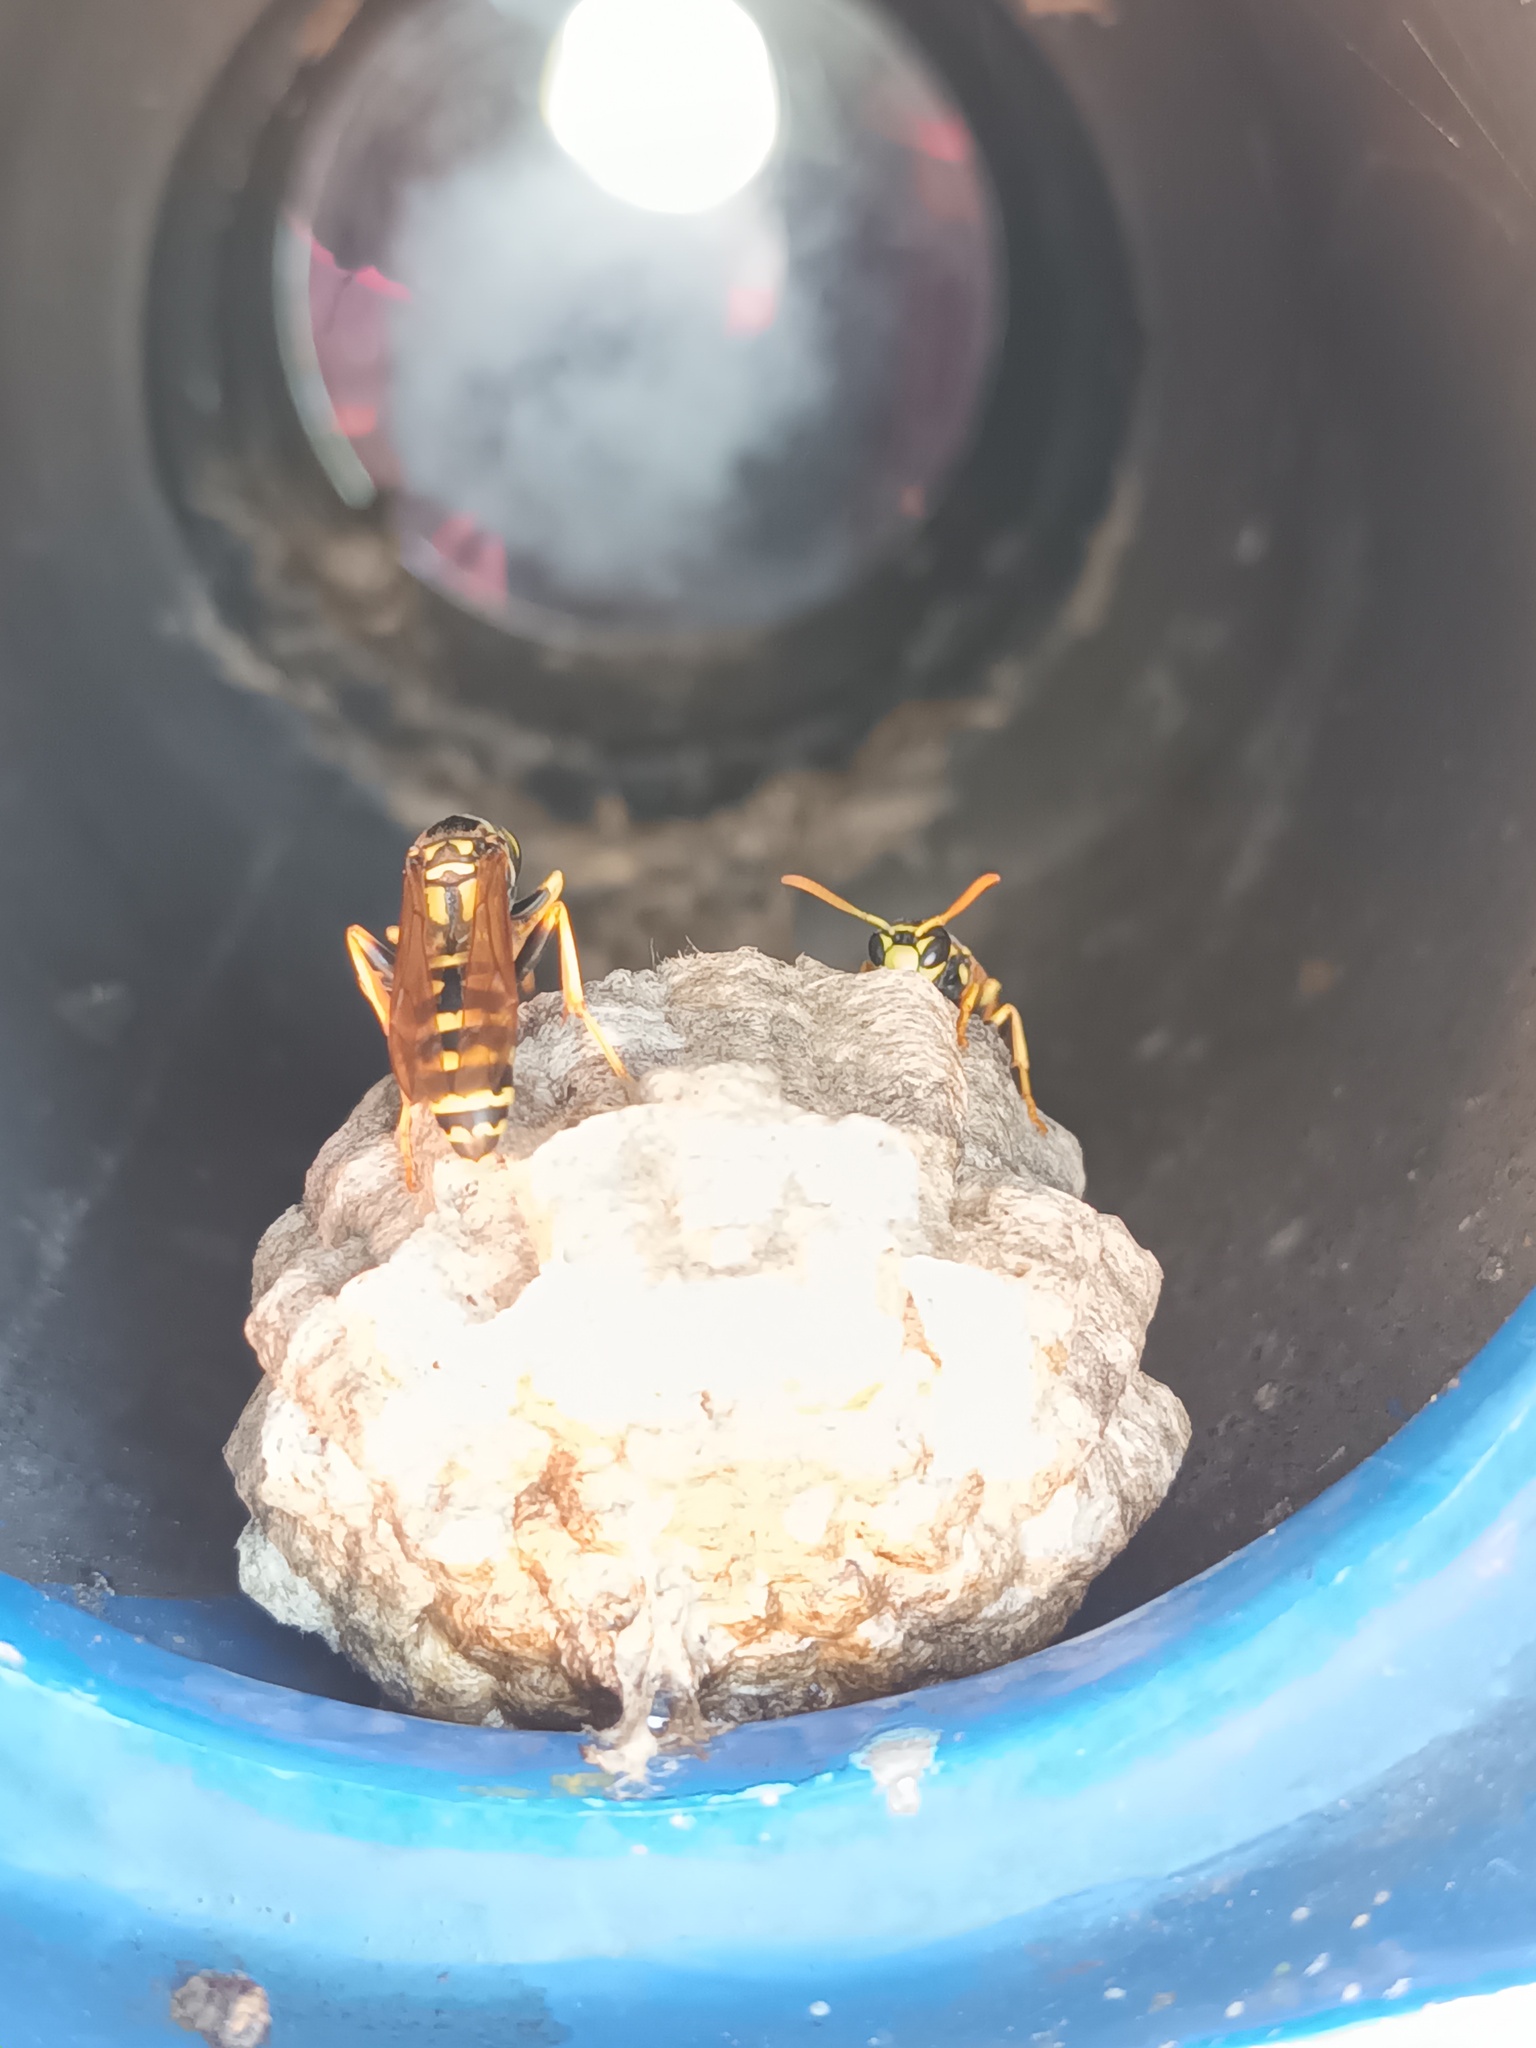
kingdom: Animalia
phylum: Arthropoda
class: Insecta
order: Hymenoptera
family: Eumenidae
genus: Polistes
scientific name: Polistes dominula
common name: Paper wasp
